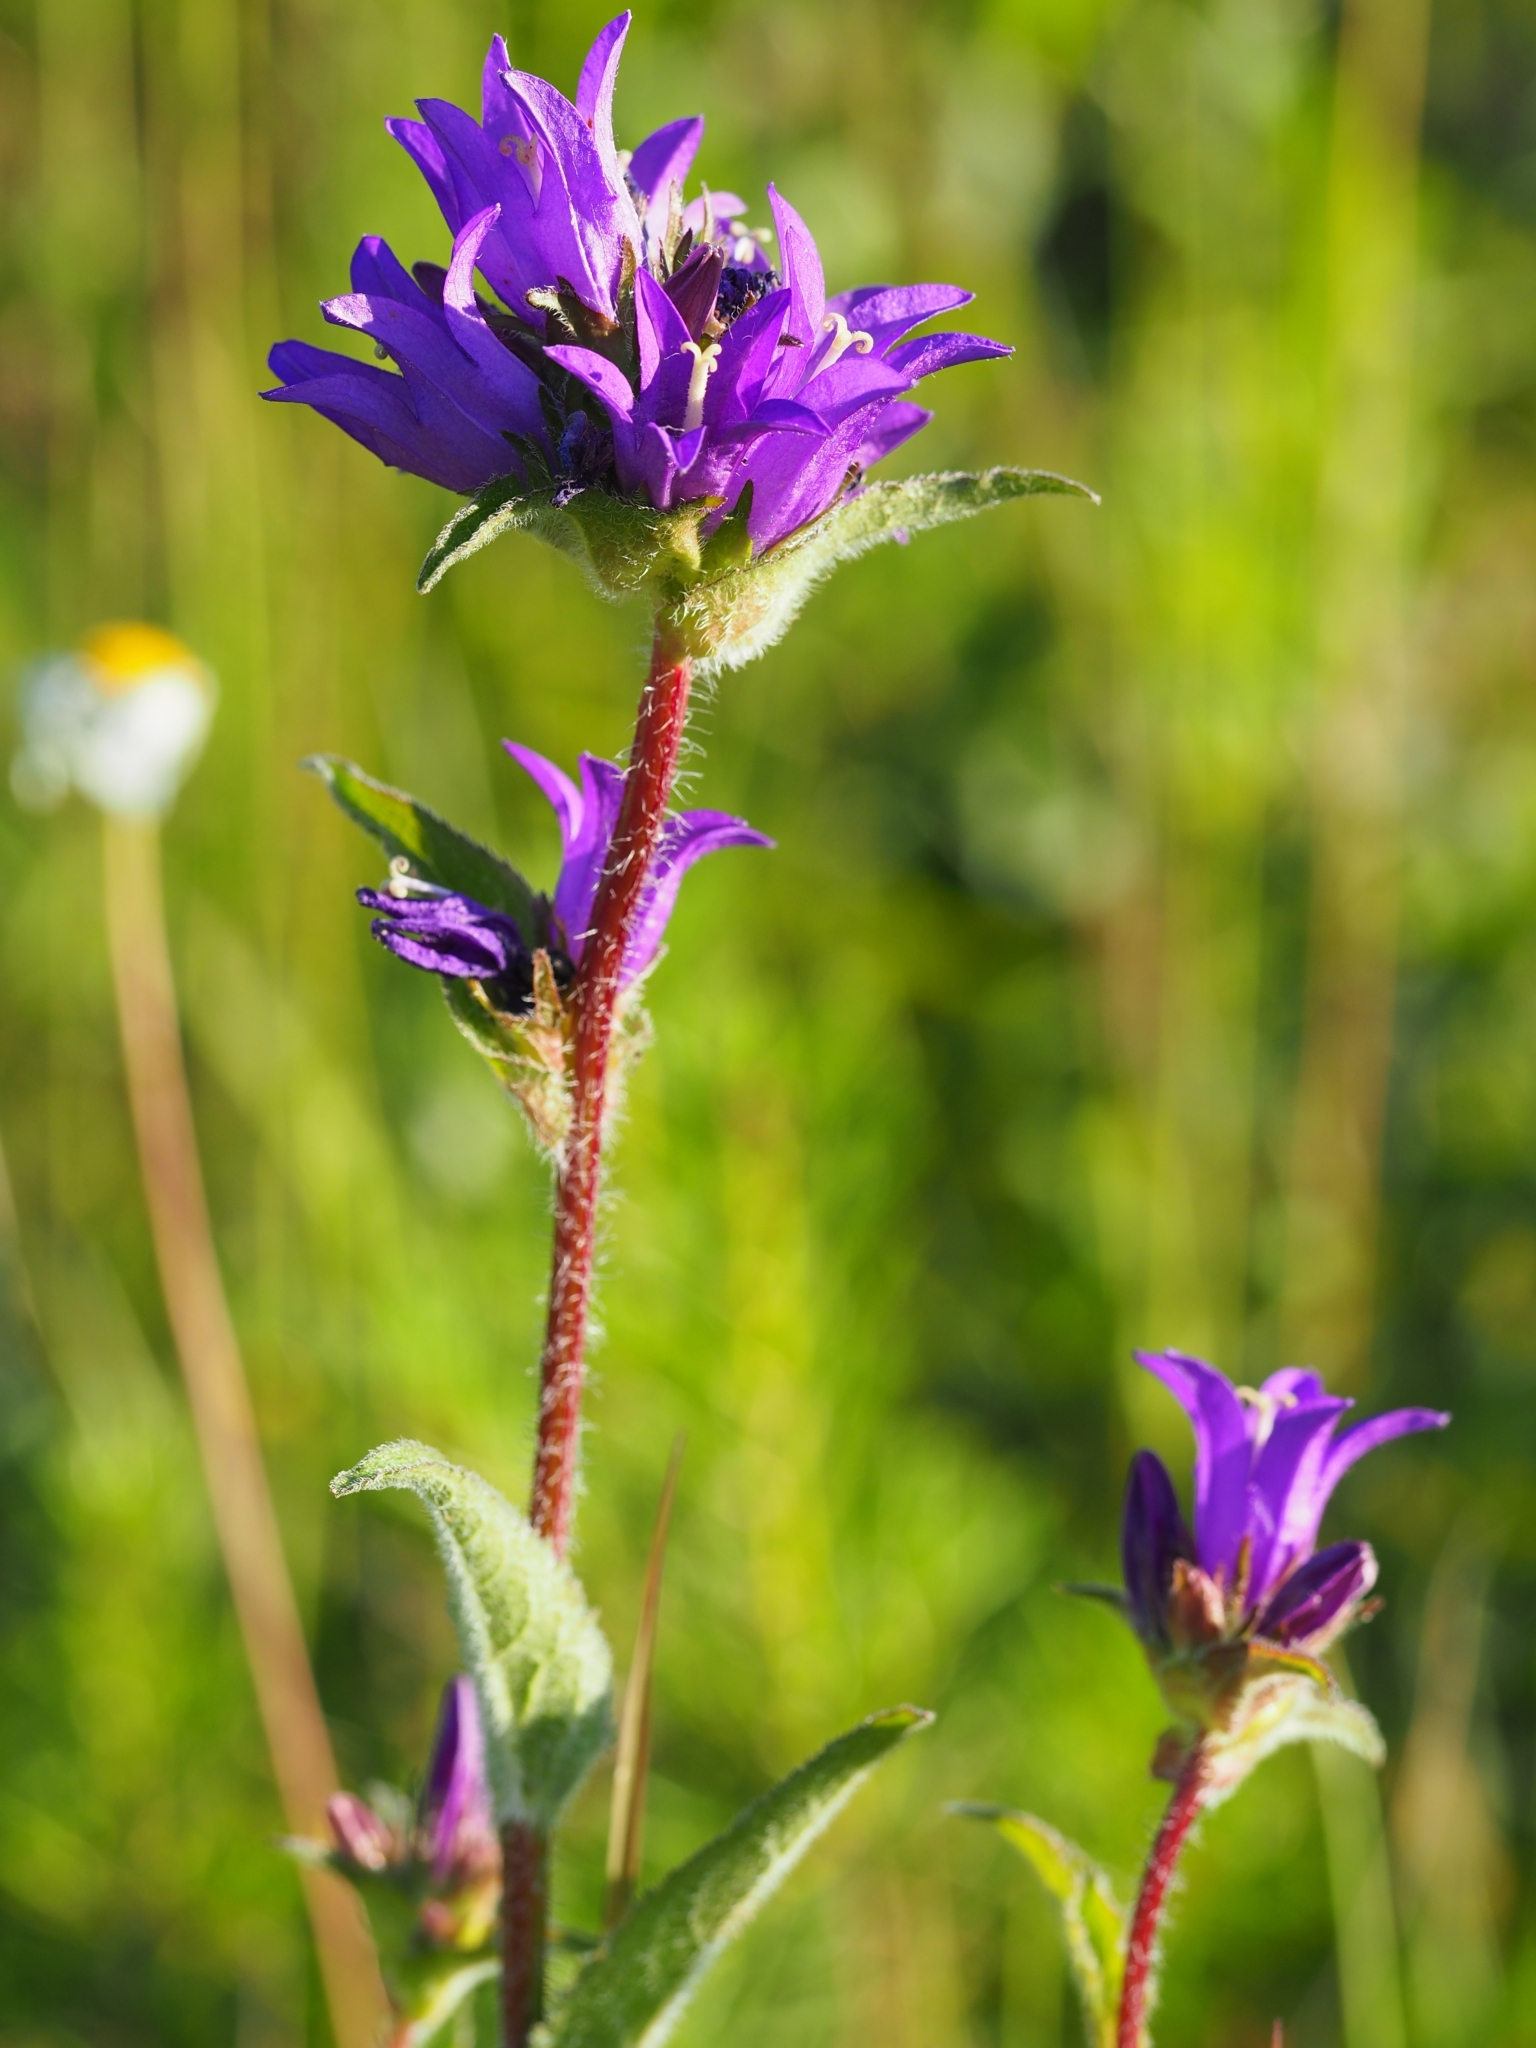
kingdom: Plantae
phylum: Tracheophyta
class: Magnoliopsida
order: Asterales
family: Campanulaceae
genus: Campanula
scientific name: Campanula glomerata
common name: Clustered bellflower
